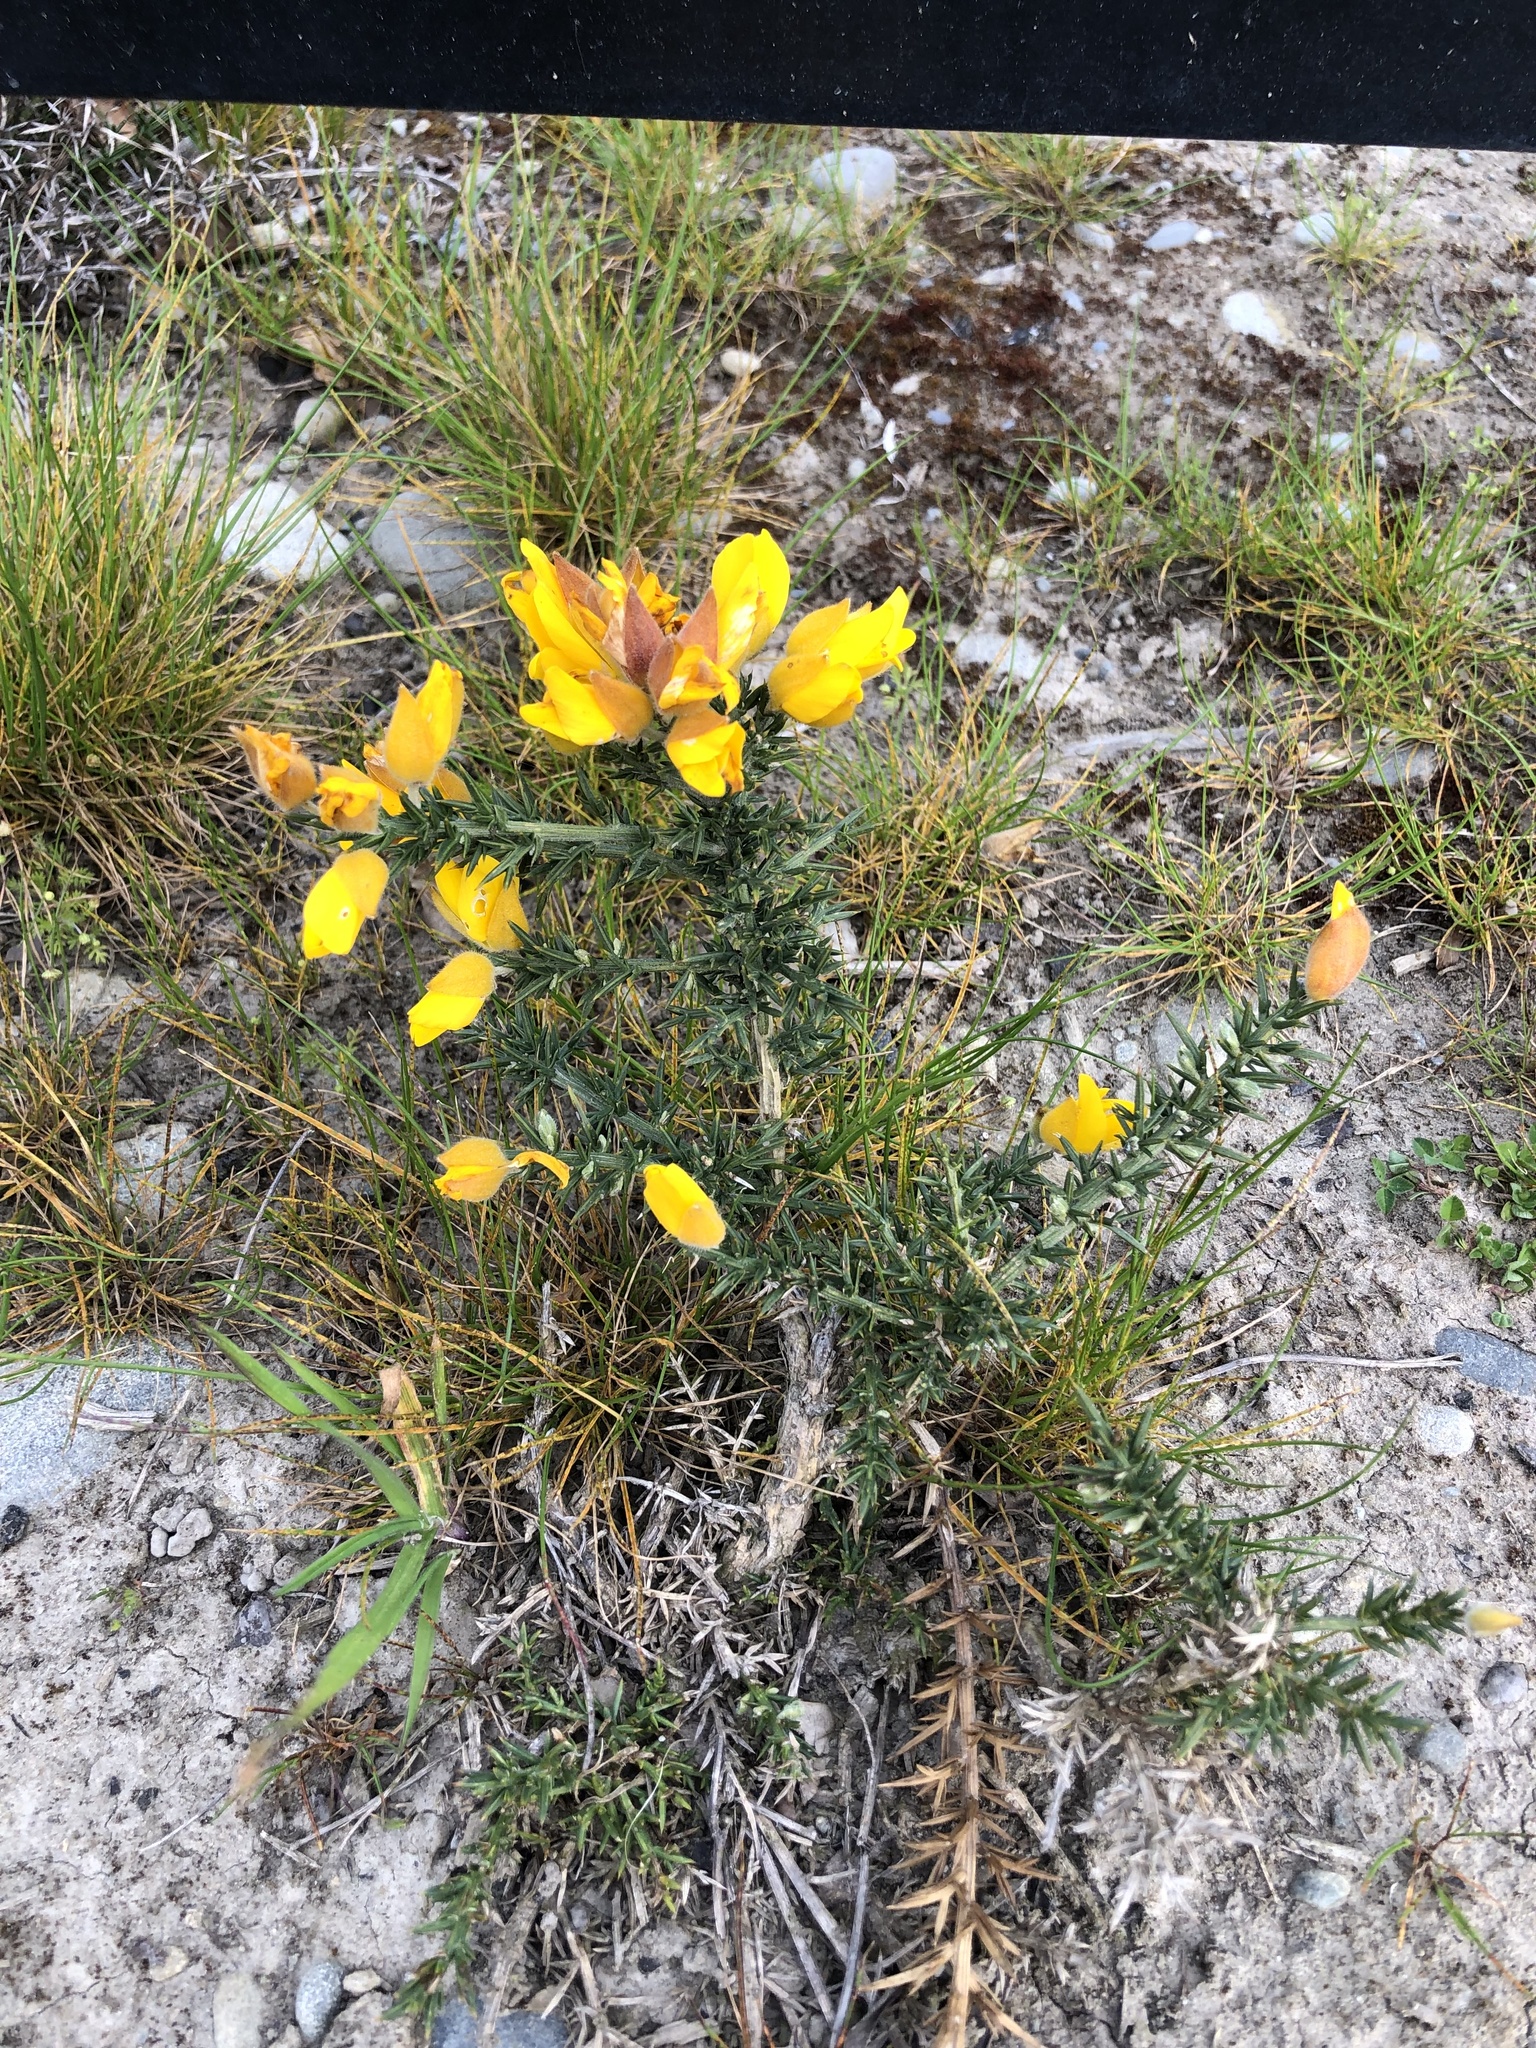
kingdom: Plantae
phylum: Tracheophyta
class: Magnoliopsida
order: Fabales
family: Fabaceae
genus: Ulex
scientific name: Ulex europaeus
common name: Common gorse
